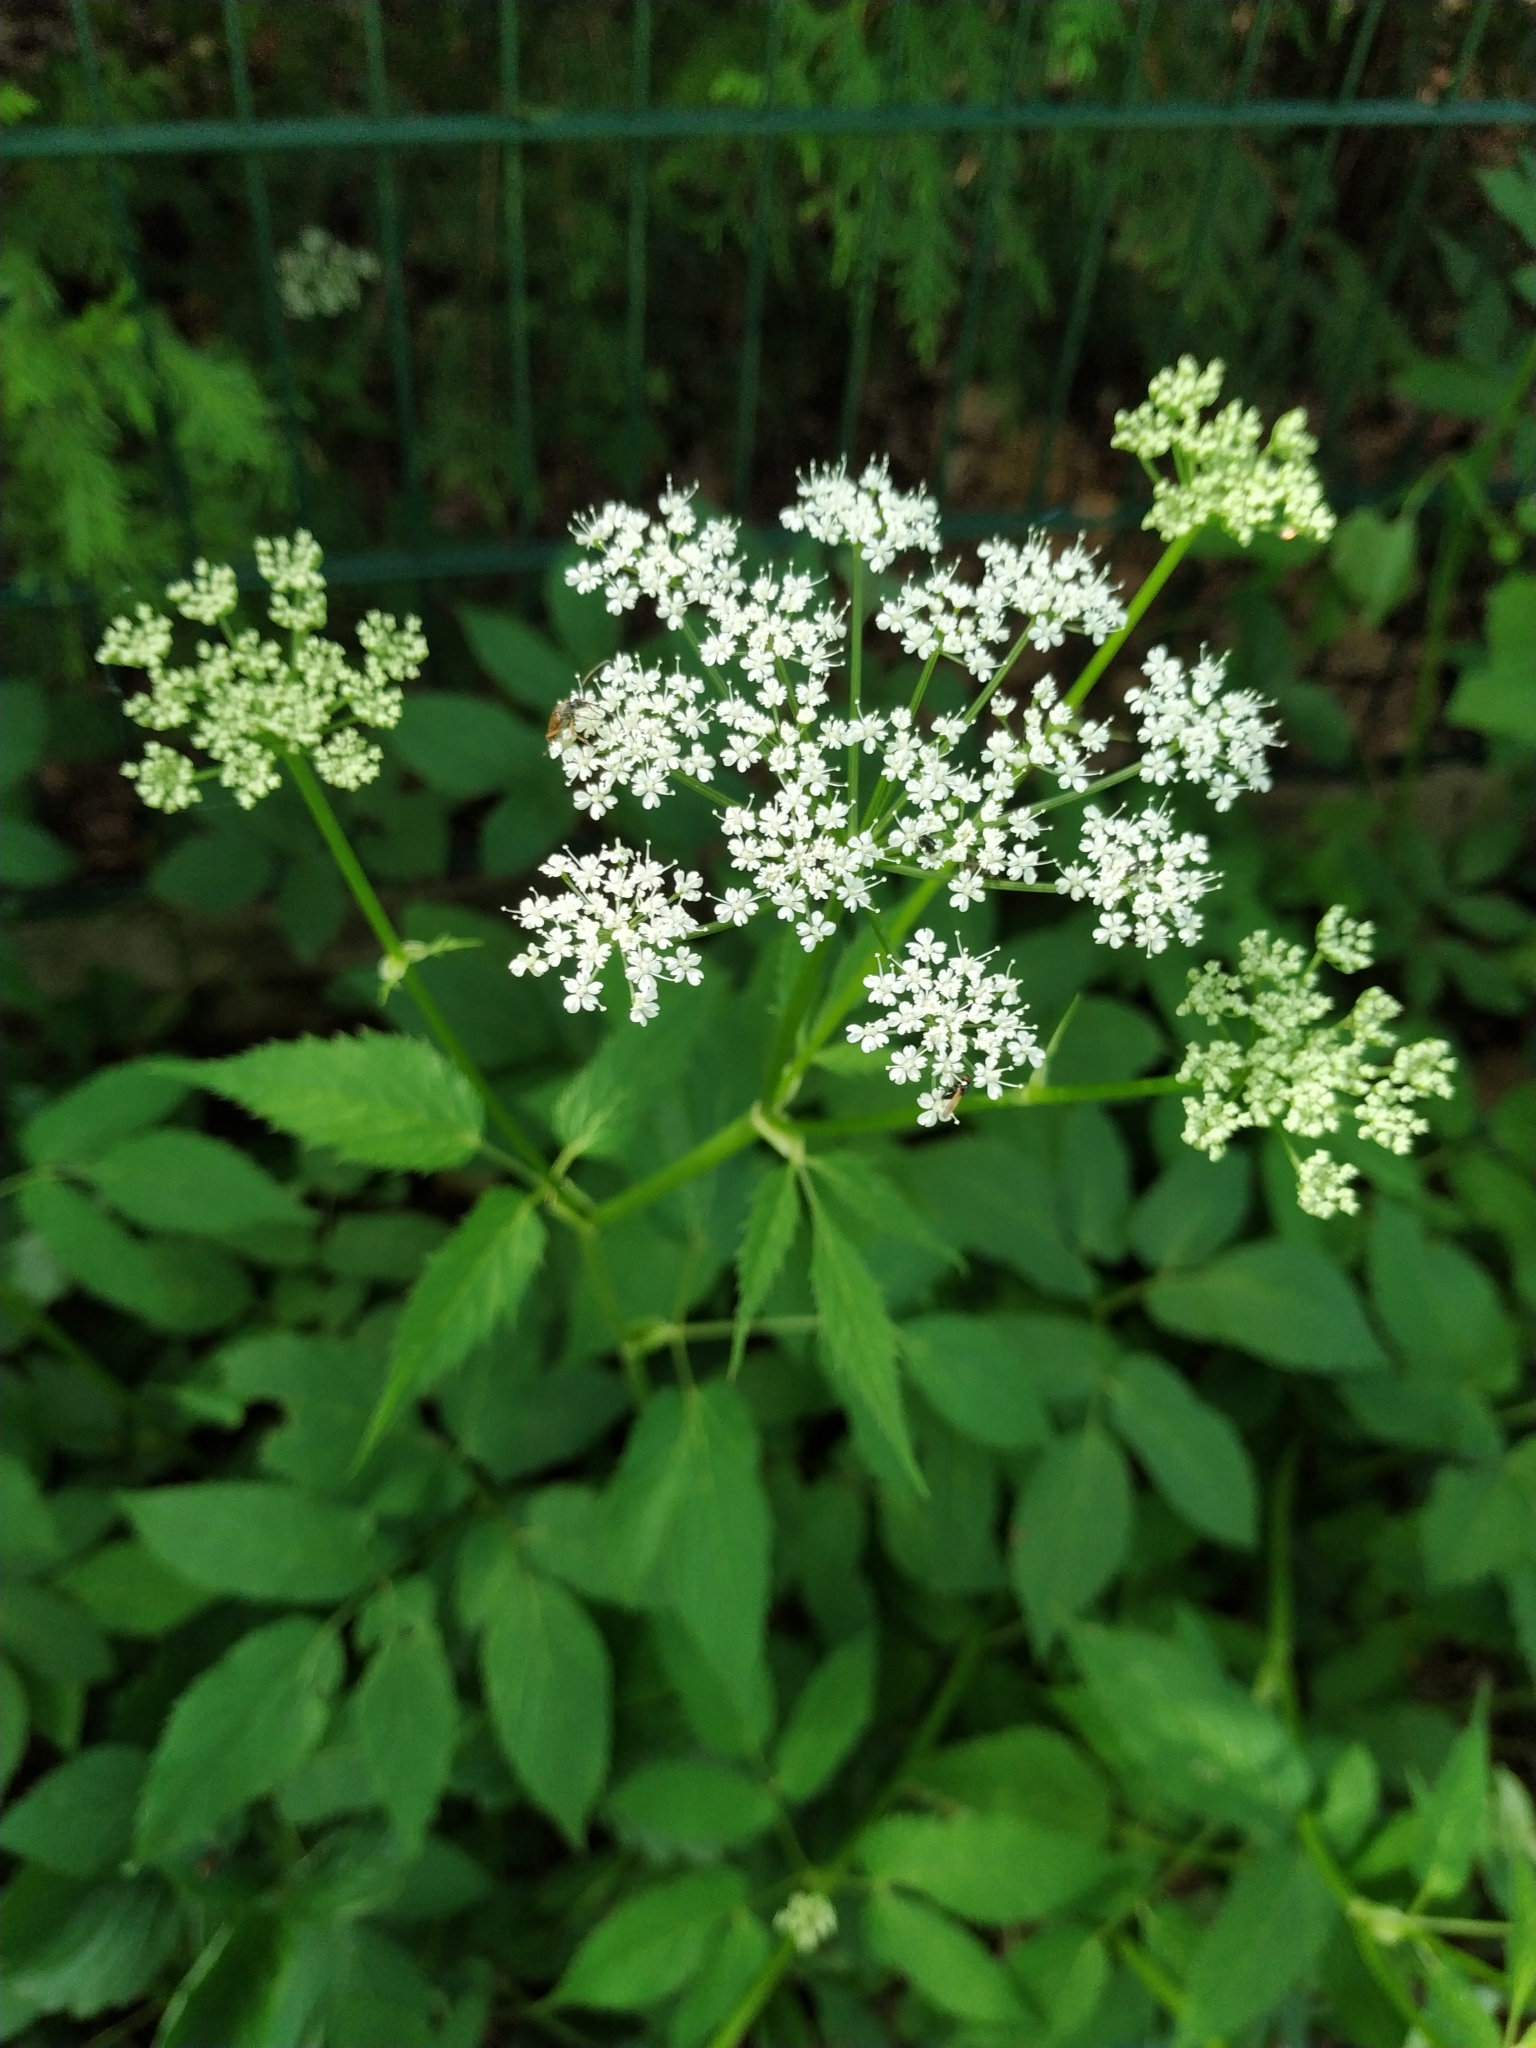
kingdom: Plantae
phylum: Tracheophyta
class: Magnoliopsida
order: Apiales
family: Apiaceae
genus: Aegopodium
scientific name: Aegopodium podagraria
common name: Ground-elder
